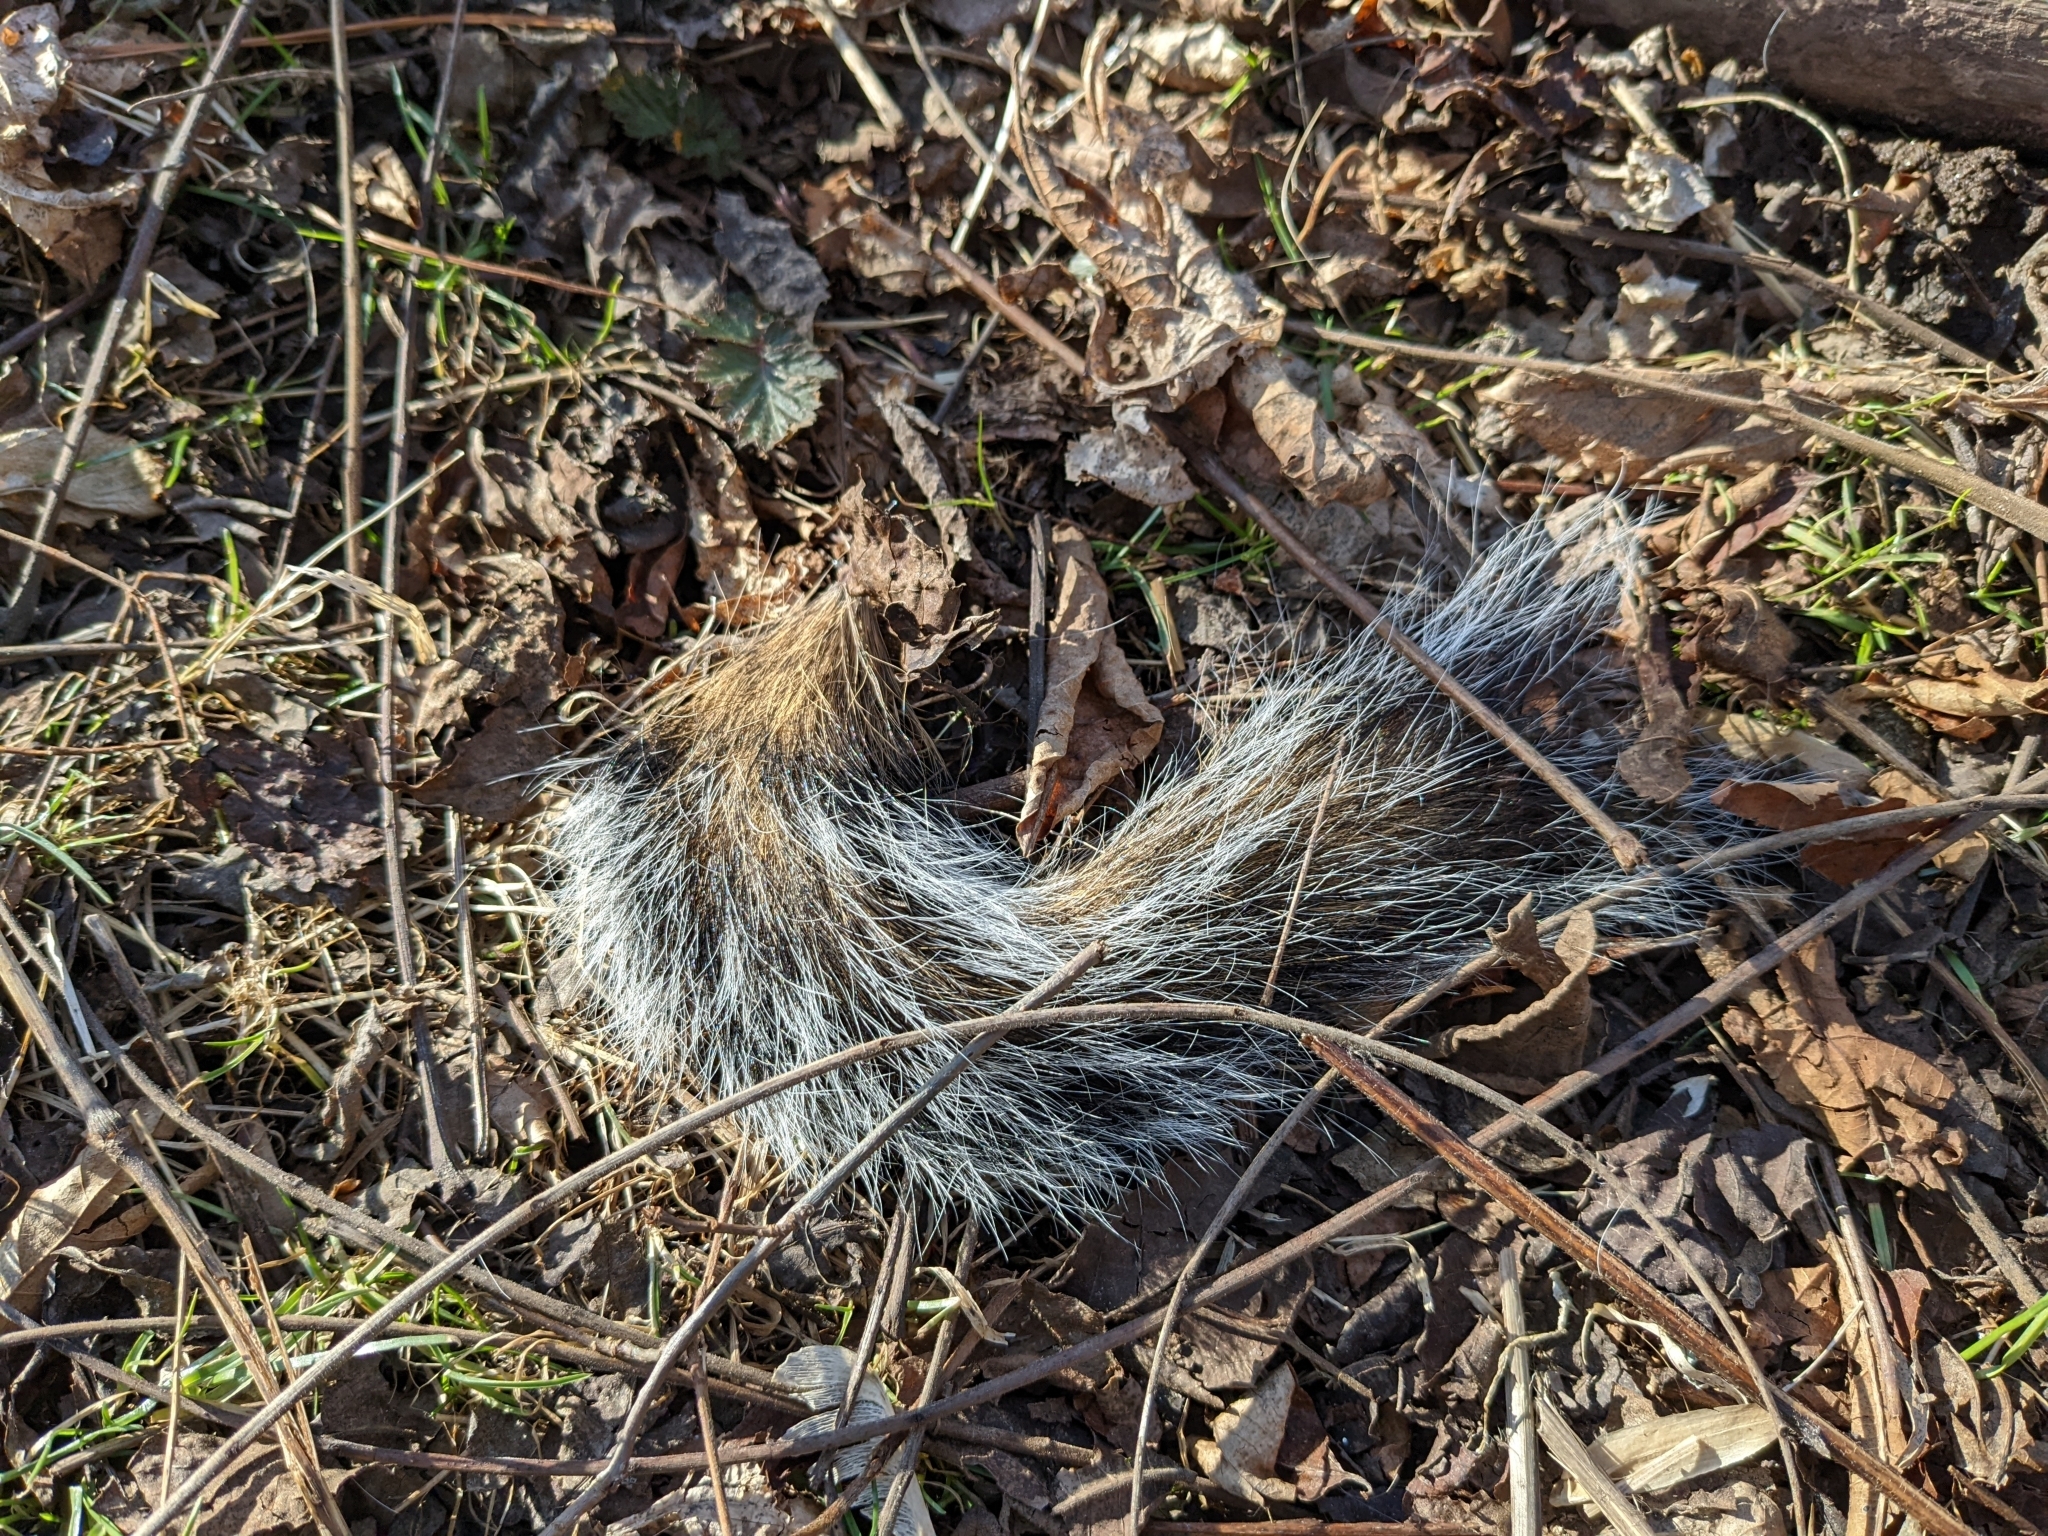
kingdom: Animalia
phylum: Chordata
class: Mammalia
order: Rodentia
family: Sciuridae
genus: Sciurus
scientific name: Sciurus carolinensis
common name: Eastern gray squirrel
